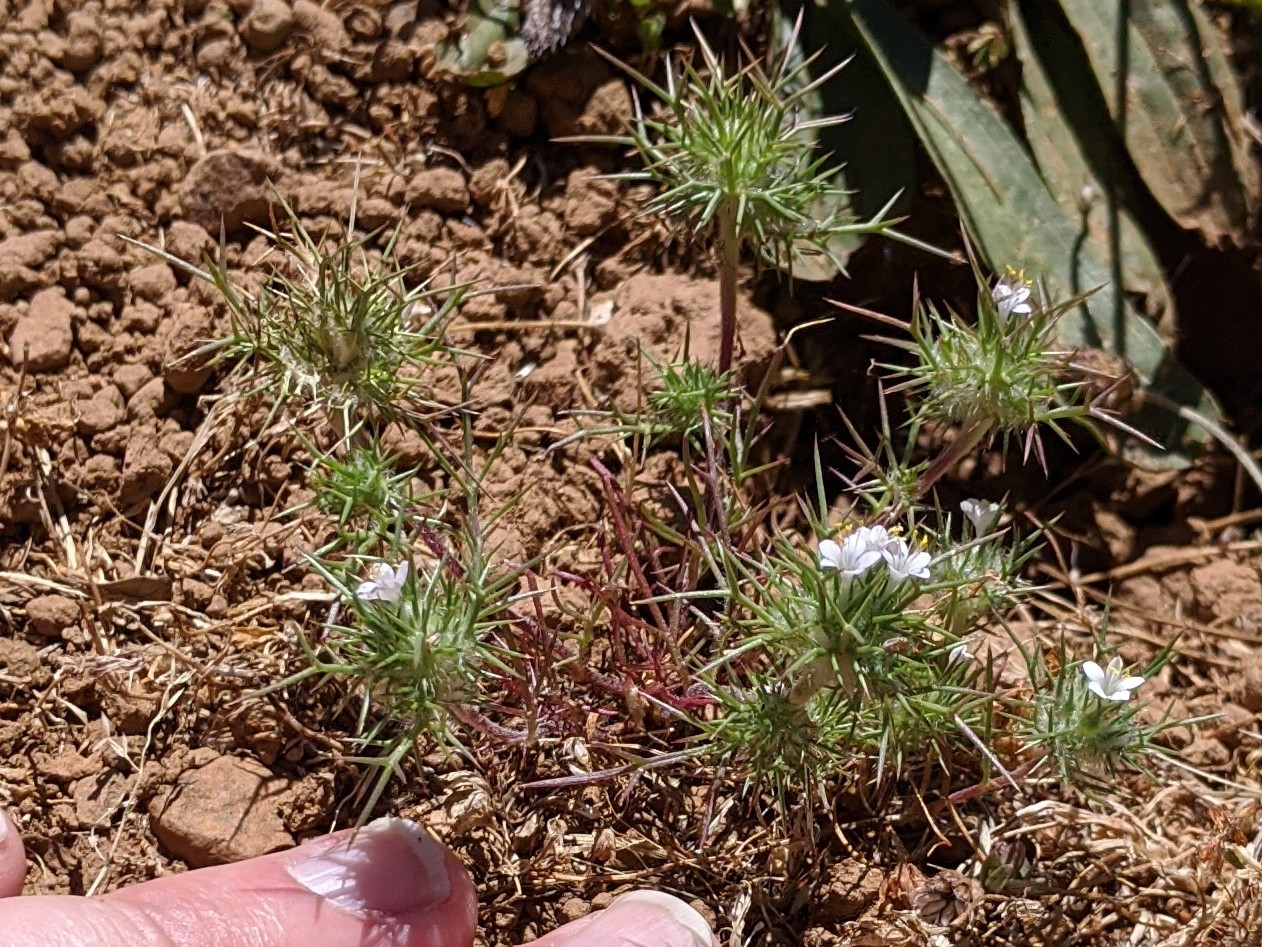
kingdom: Plantae
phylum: Tracheophyta
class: Magnoliopsida
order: Ericales
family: Polemoniaceae
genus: Navarretia
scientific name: Navarretia intertexta
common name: Needle-leaved navarretia
